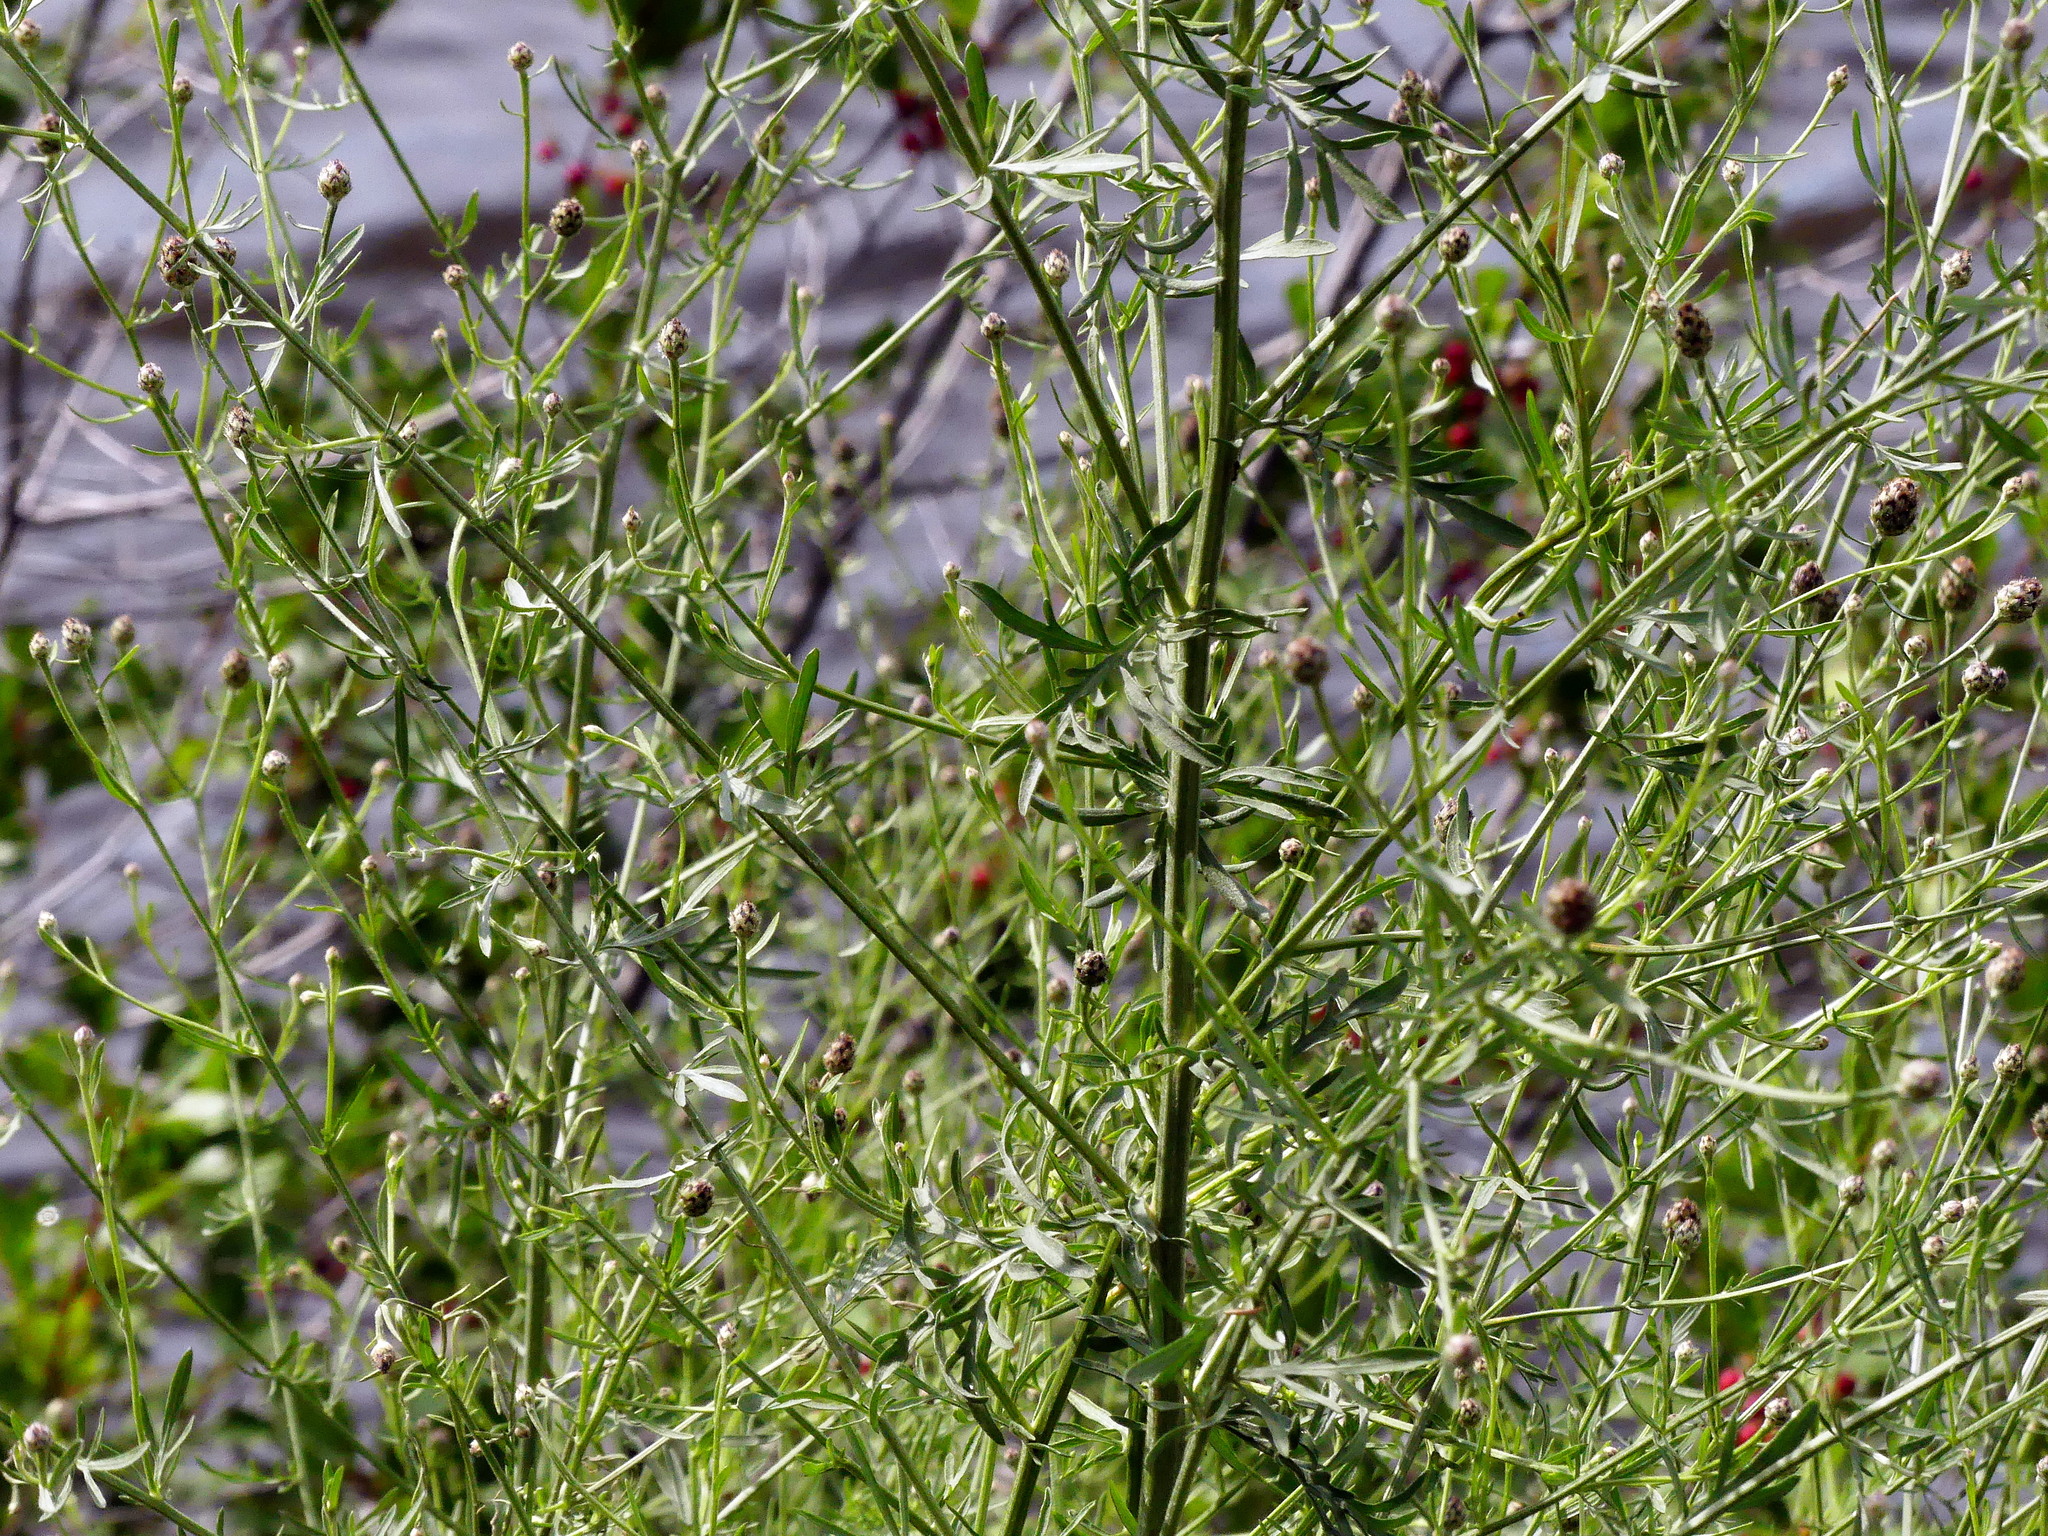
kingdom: Plantae
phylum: Tracheophyta
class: Magnoliopsida
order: Asterales
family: Asteraceae
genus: Centaurea
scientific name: Centaurea stoebe
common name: Spotted knapweed
